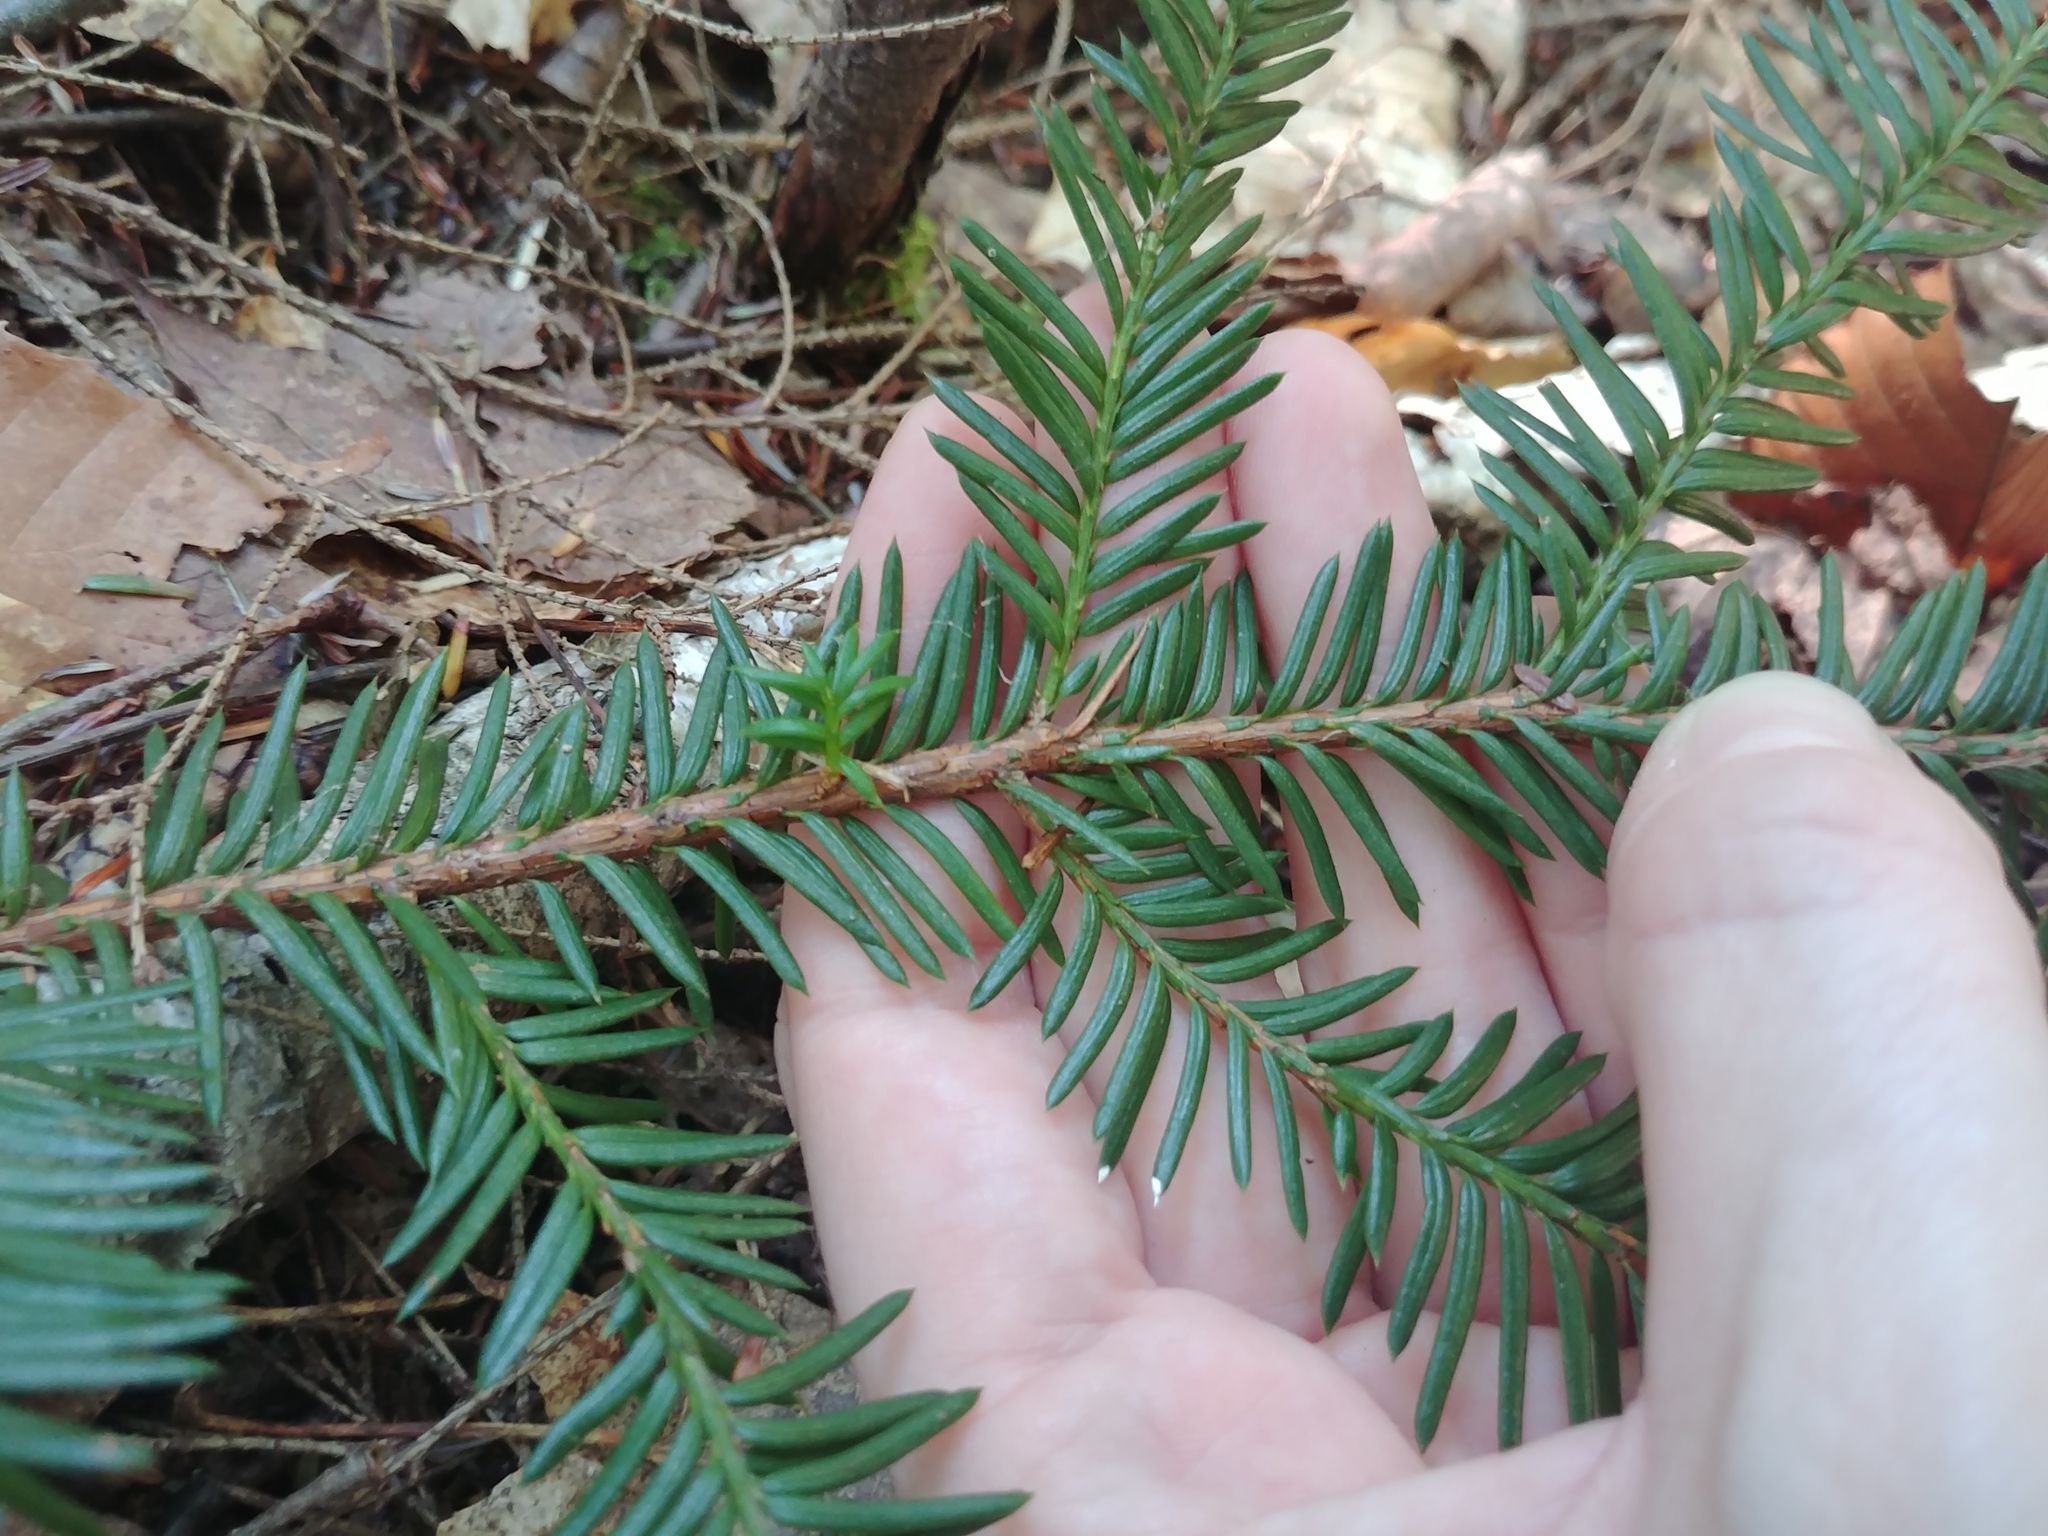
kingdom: Plantae
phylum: Tracheophyta
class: Pinopsida
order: Pinales
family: Taxaceae
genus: Taxus
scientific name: Taxus canadensis
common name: American yew
